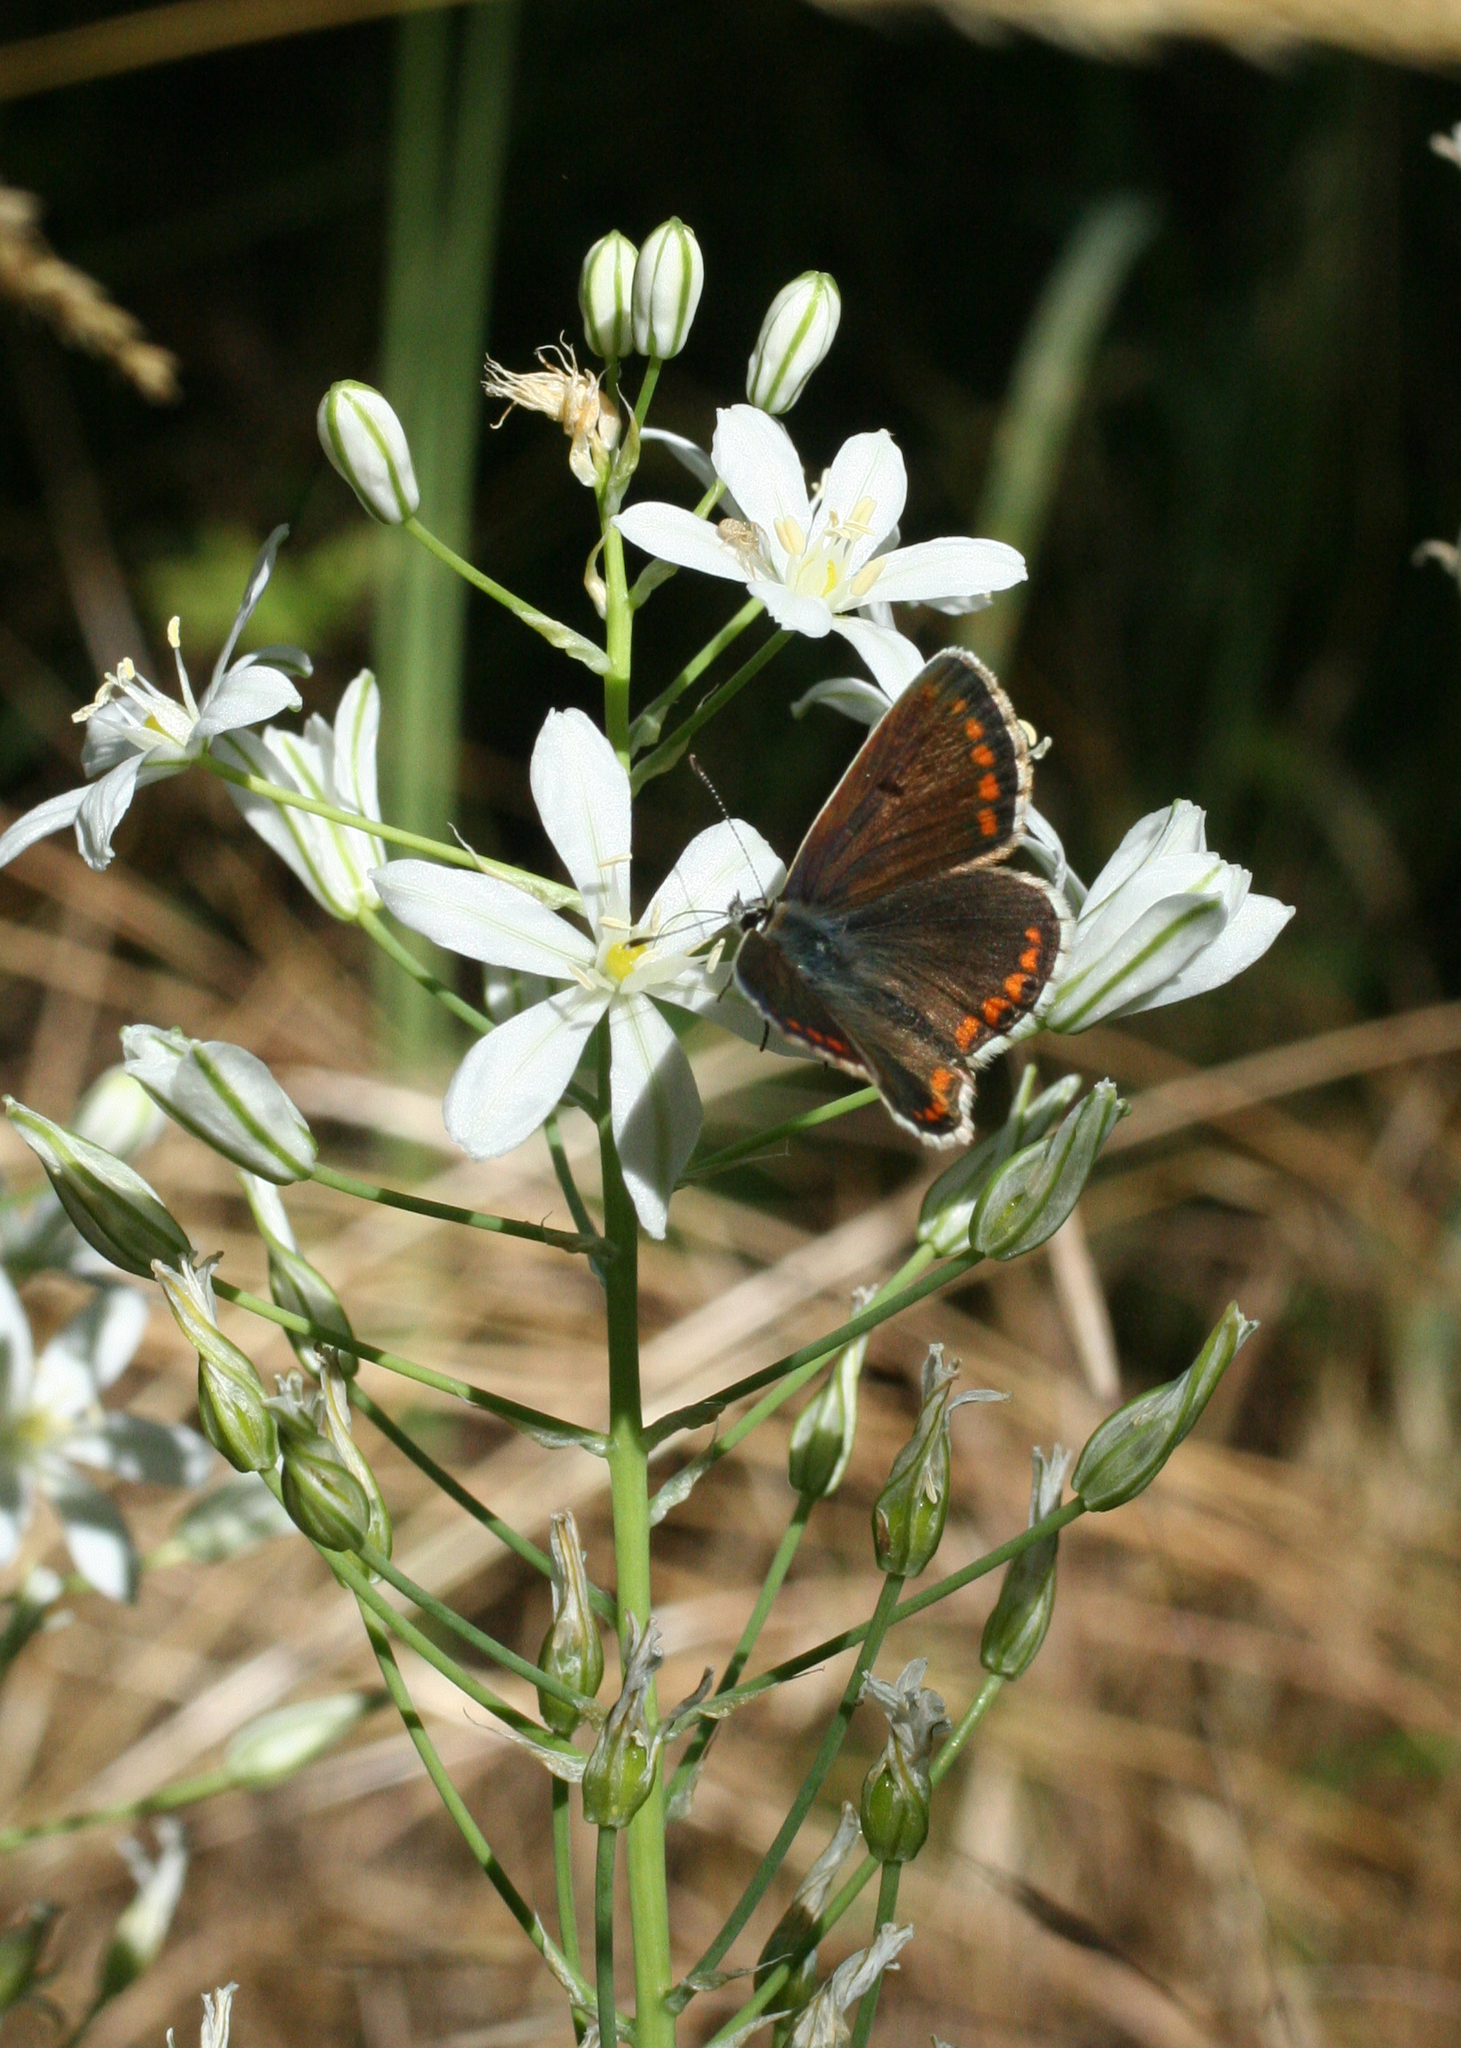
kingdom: Animalia
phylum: Arthropoda
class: Insecta
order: Lepidoptera
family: Lycaenidae
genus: Aricia
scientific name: Aricia agestis
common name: Brown argus
